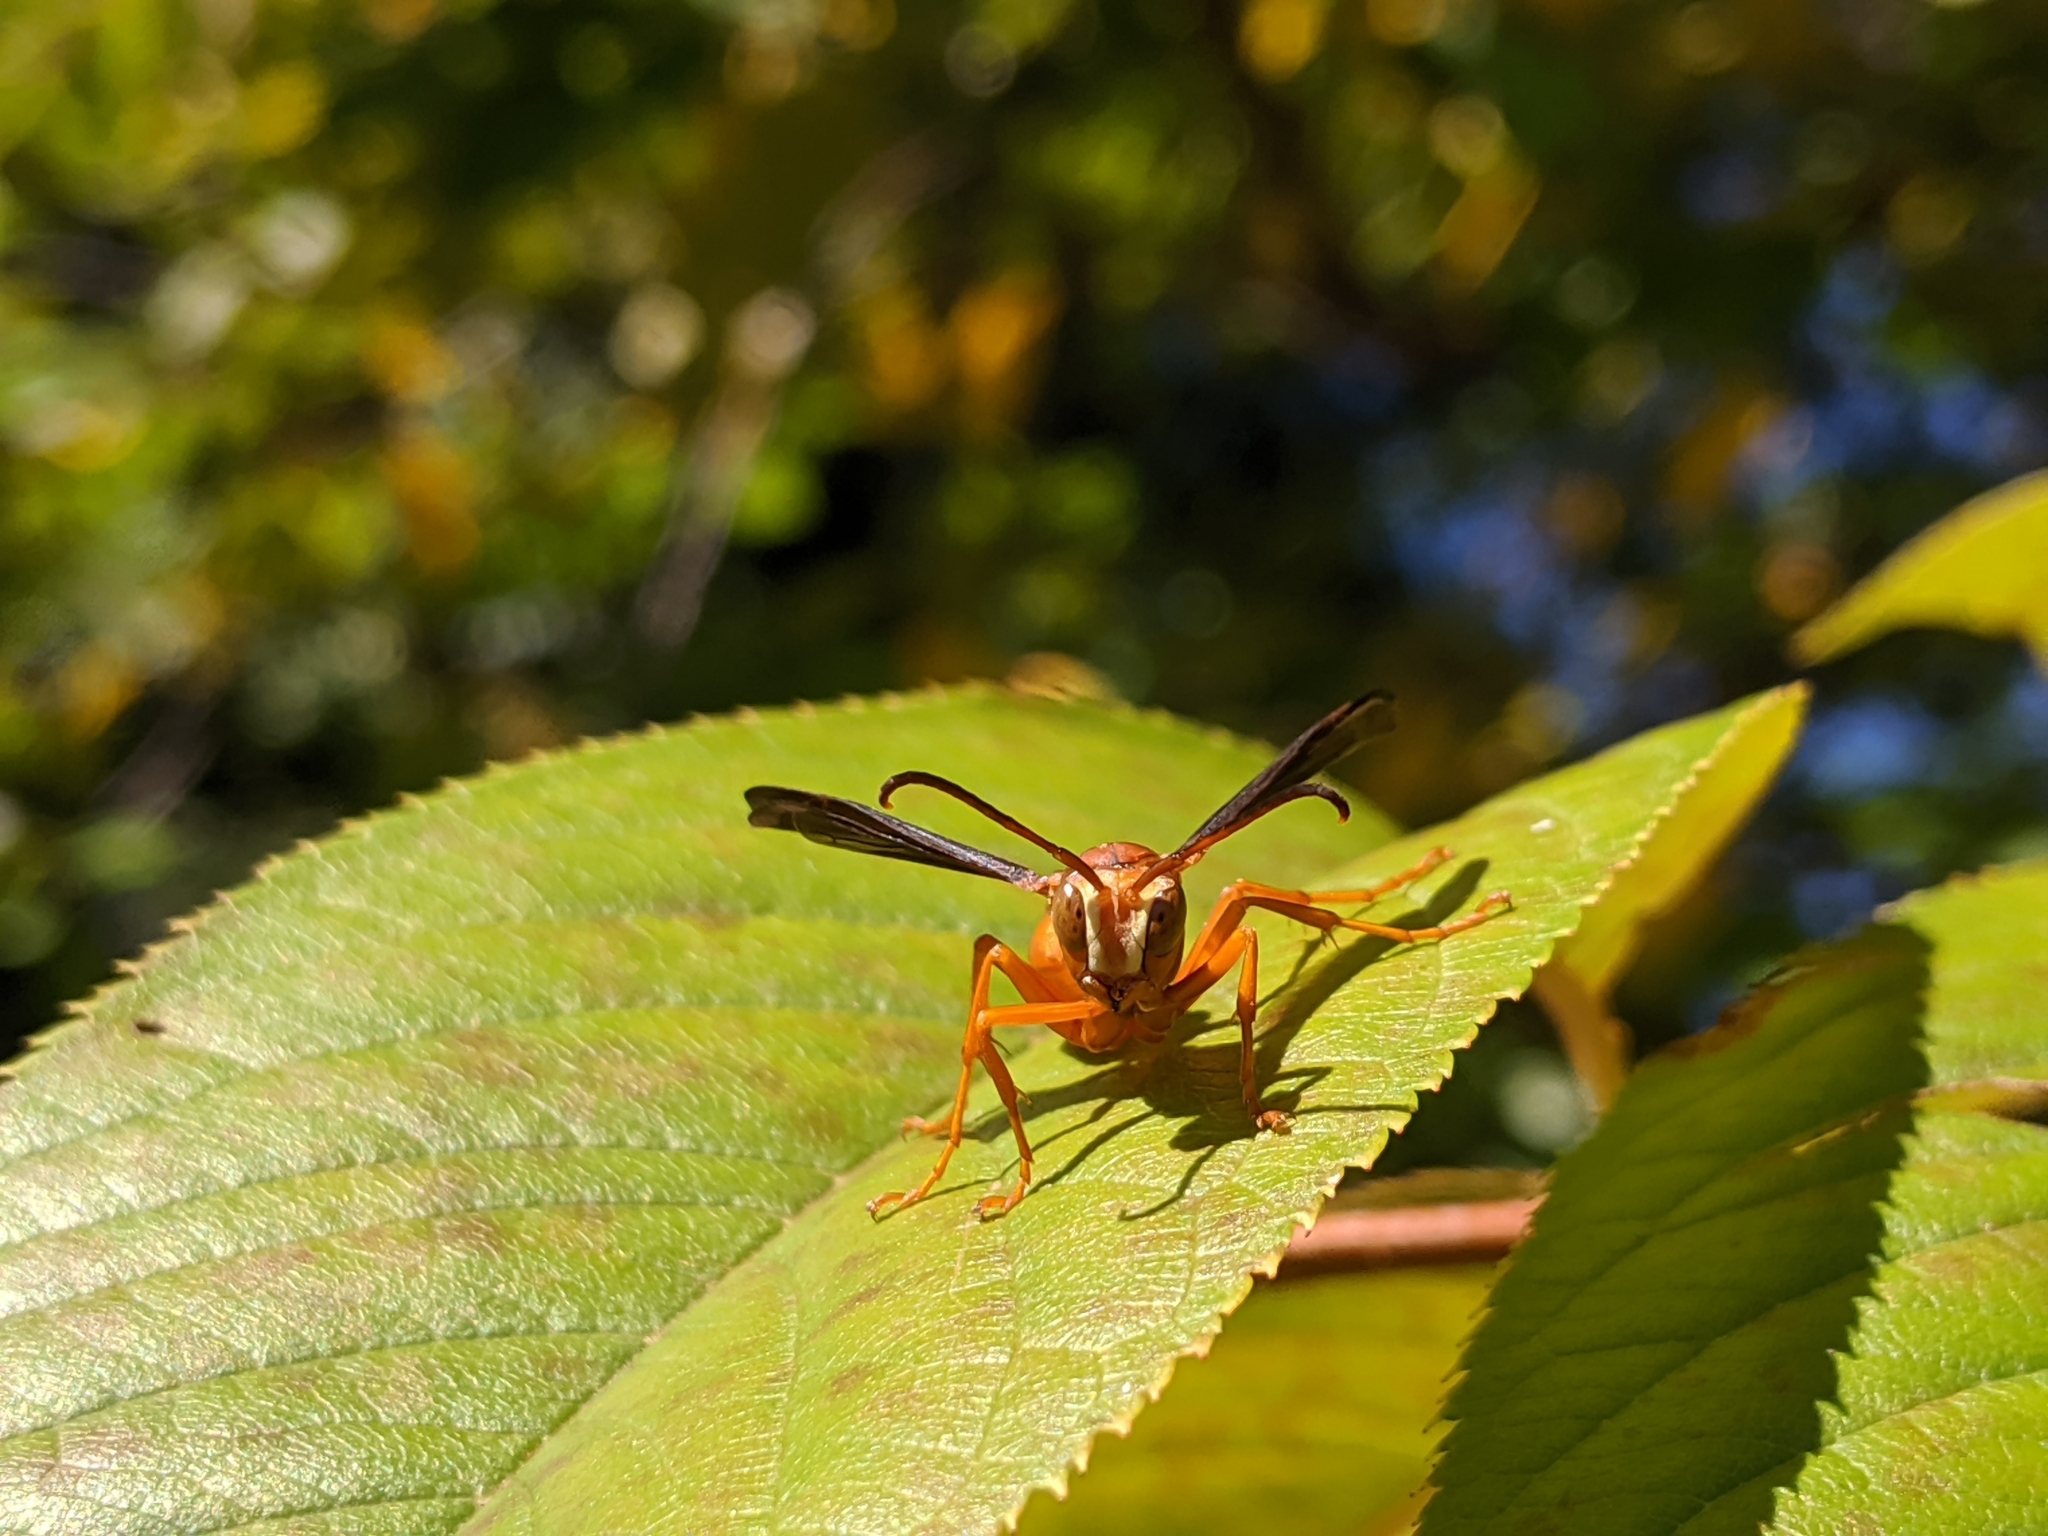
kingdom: Animalia
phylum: Arthropoda
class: Insecta
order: Hymenoptera
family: Eumenidae
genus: Polistes
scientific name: Polistes carolina
